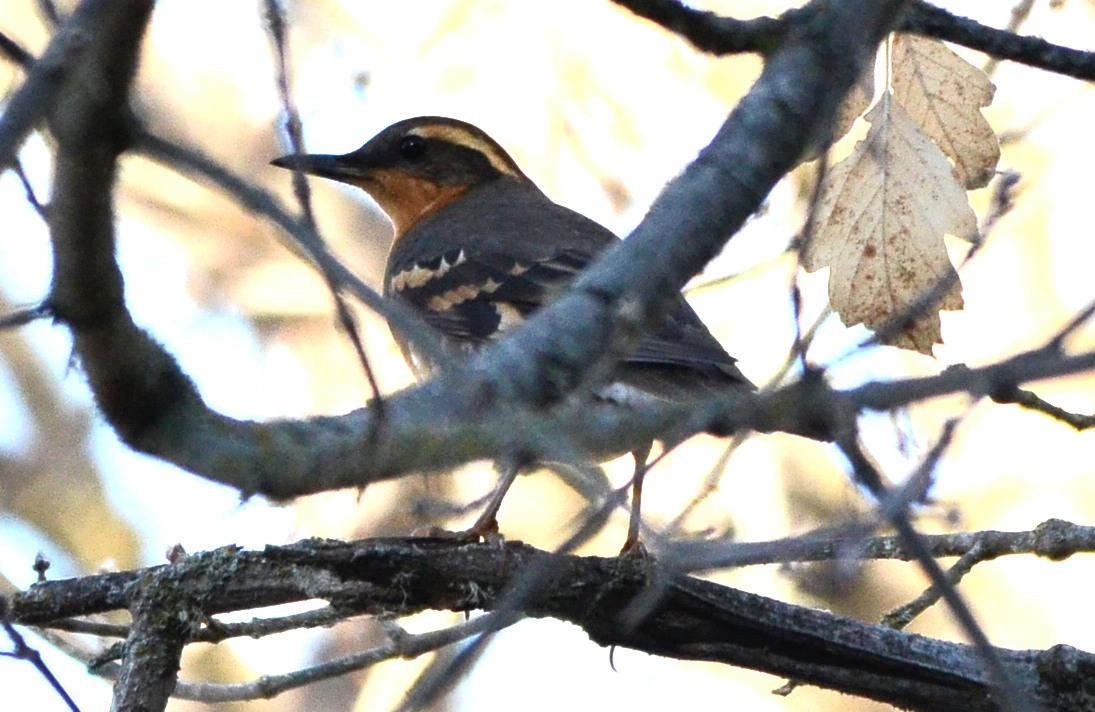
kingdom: Animalia
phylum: Chordata
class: Aves
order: Passeriformes
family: Turdidae
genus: Ixoreus
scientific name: Ixoreus naevius
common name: Varied thrush
